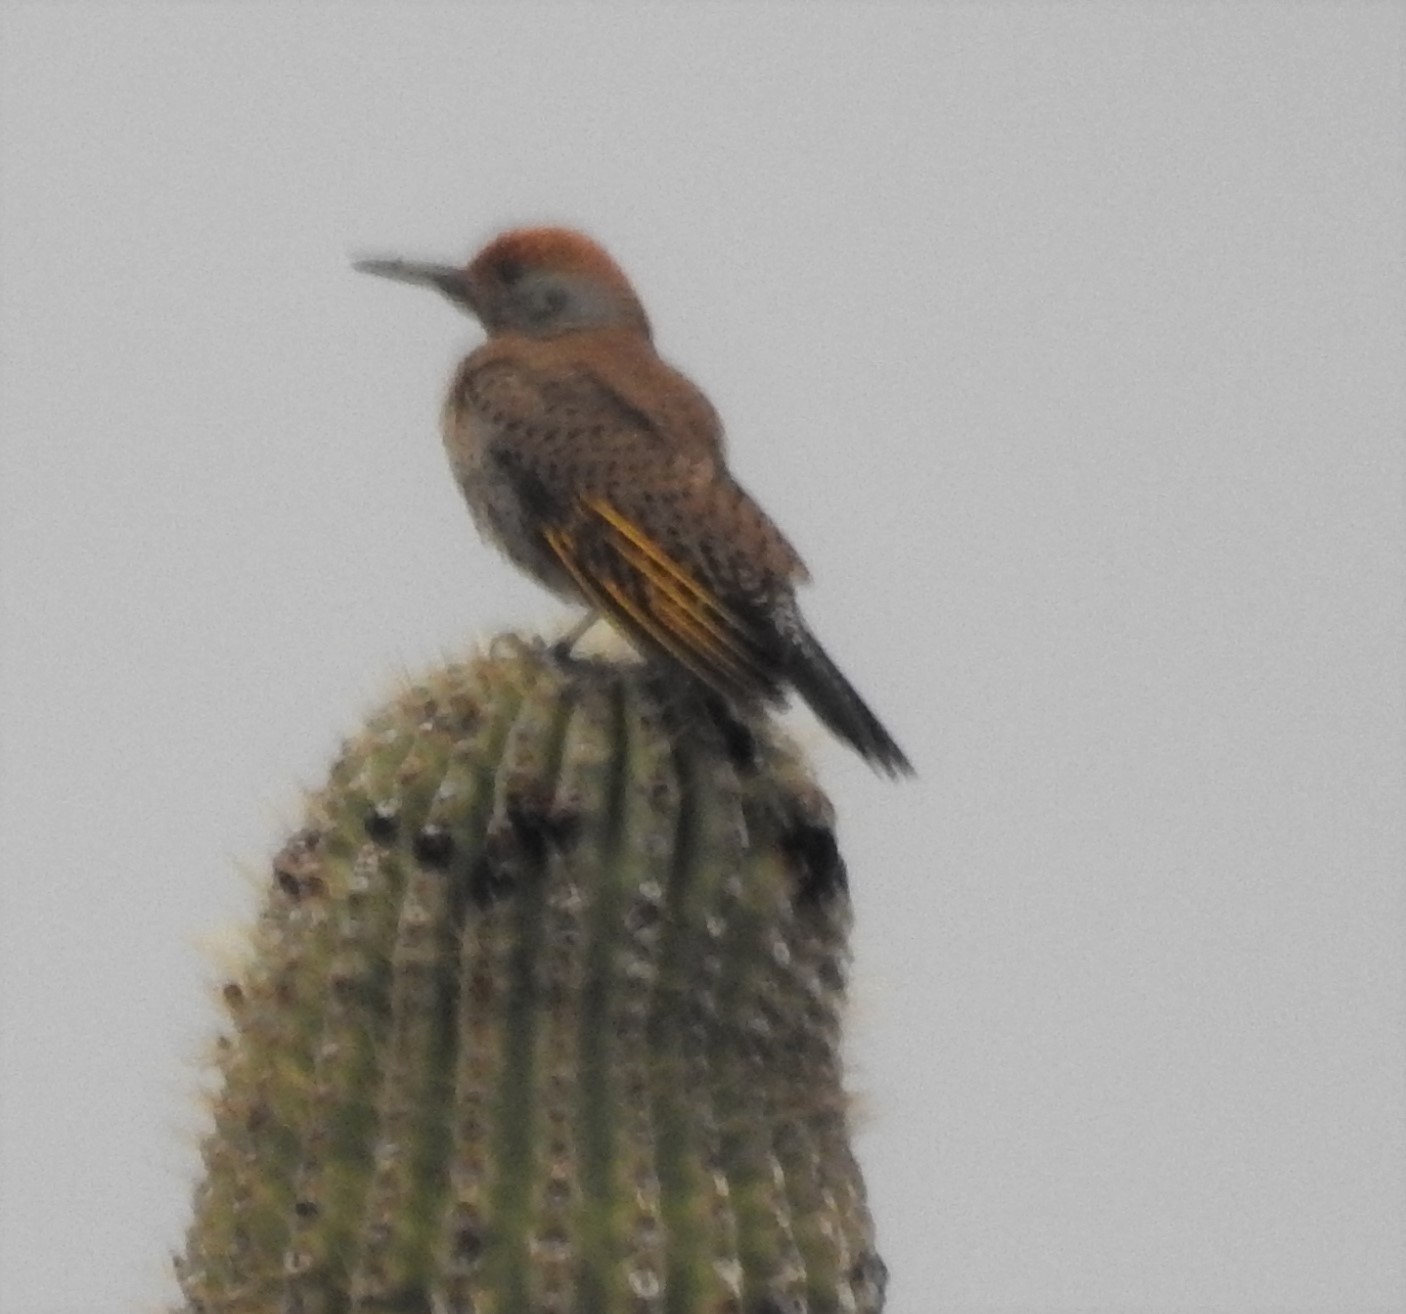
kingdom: Animalia
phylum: Chordata
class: Aves
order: Piciformes
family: Picidae
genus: Colaptes
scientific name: Colaptes chrysoides
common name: Gilded flicker
